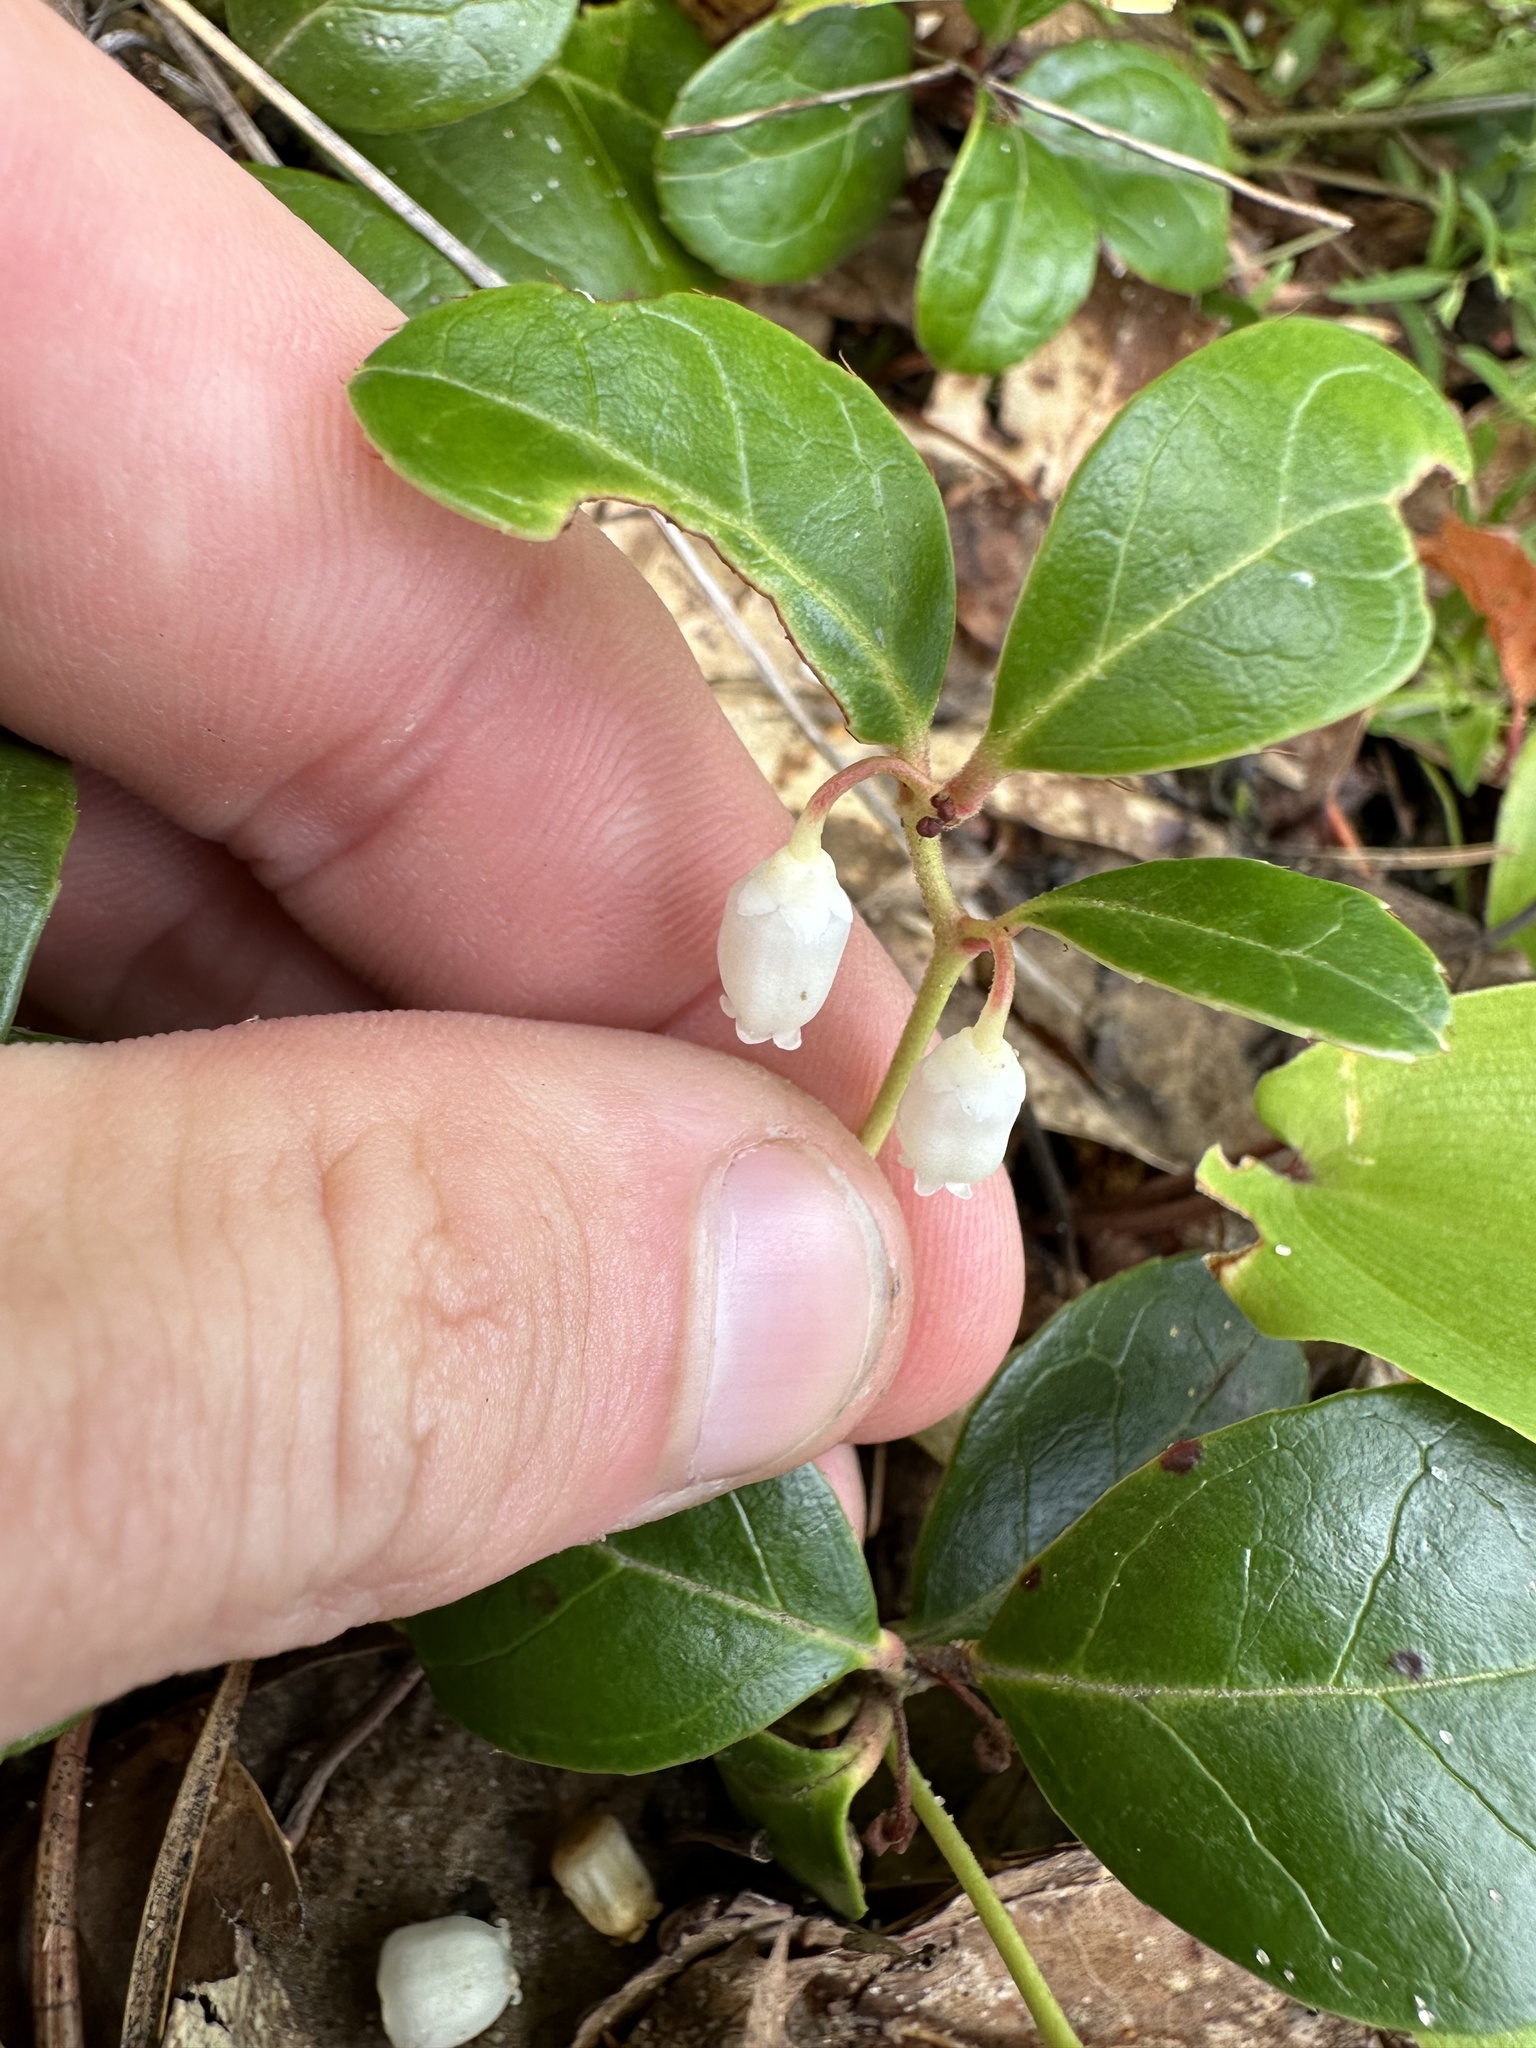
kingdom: Plantae
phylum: Tracheophyta
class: Magnoliopsida
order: Ericales
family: Ericaceae
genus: Gaultheria
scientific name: Gaultheria procumbens
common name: Checkerberry
